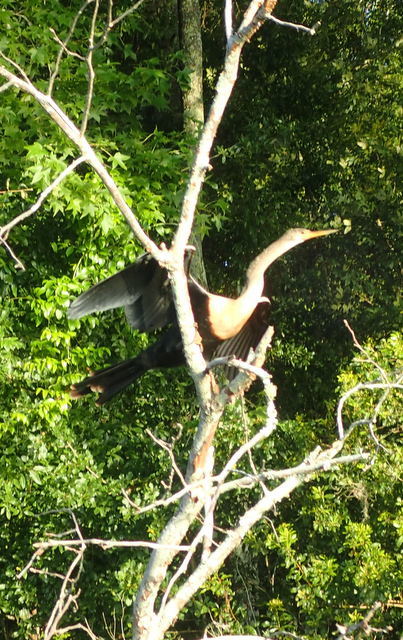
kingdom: Animalia
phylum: Chordata
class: Aves
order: Suliformes
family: Anhingidae
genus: Anhinga
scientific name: Anhinga anhinga
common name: Anhinga
